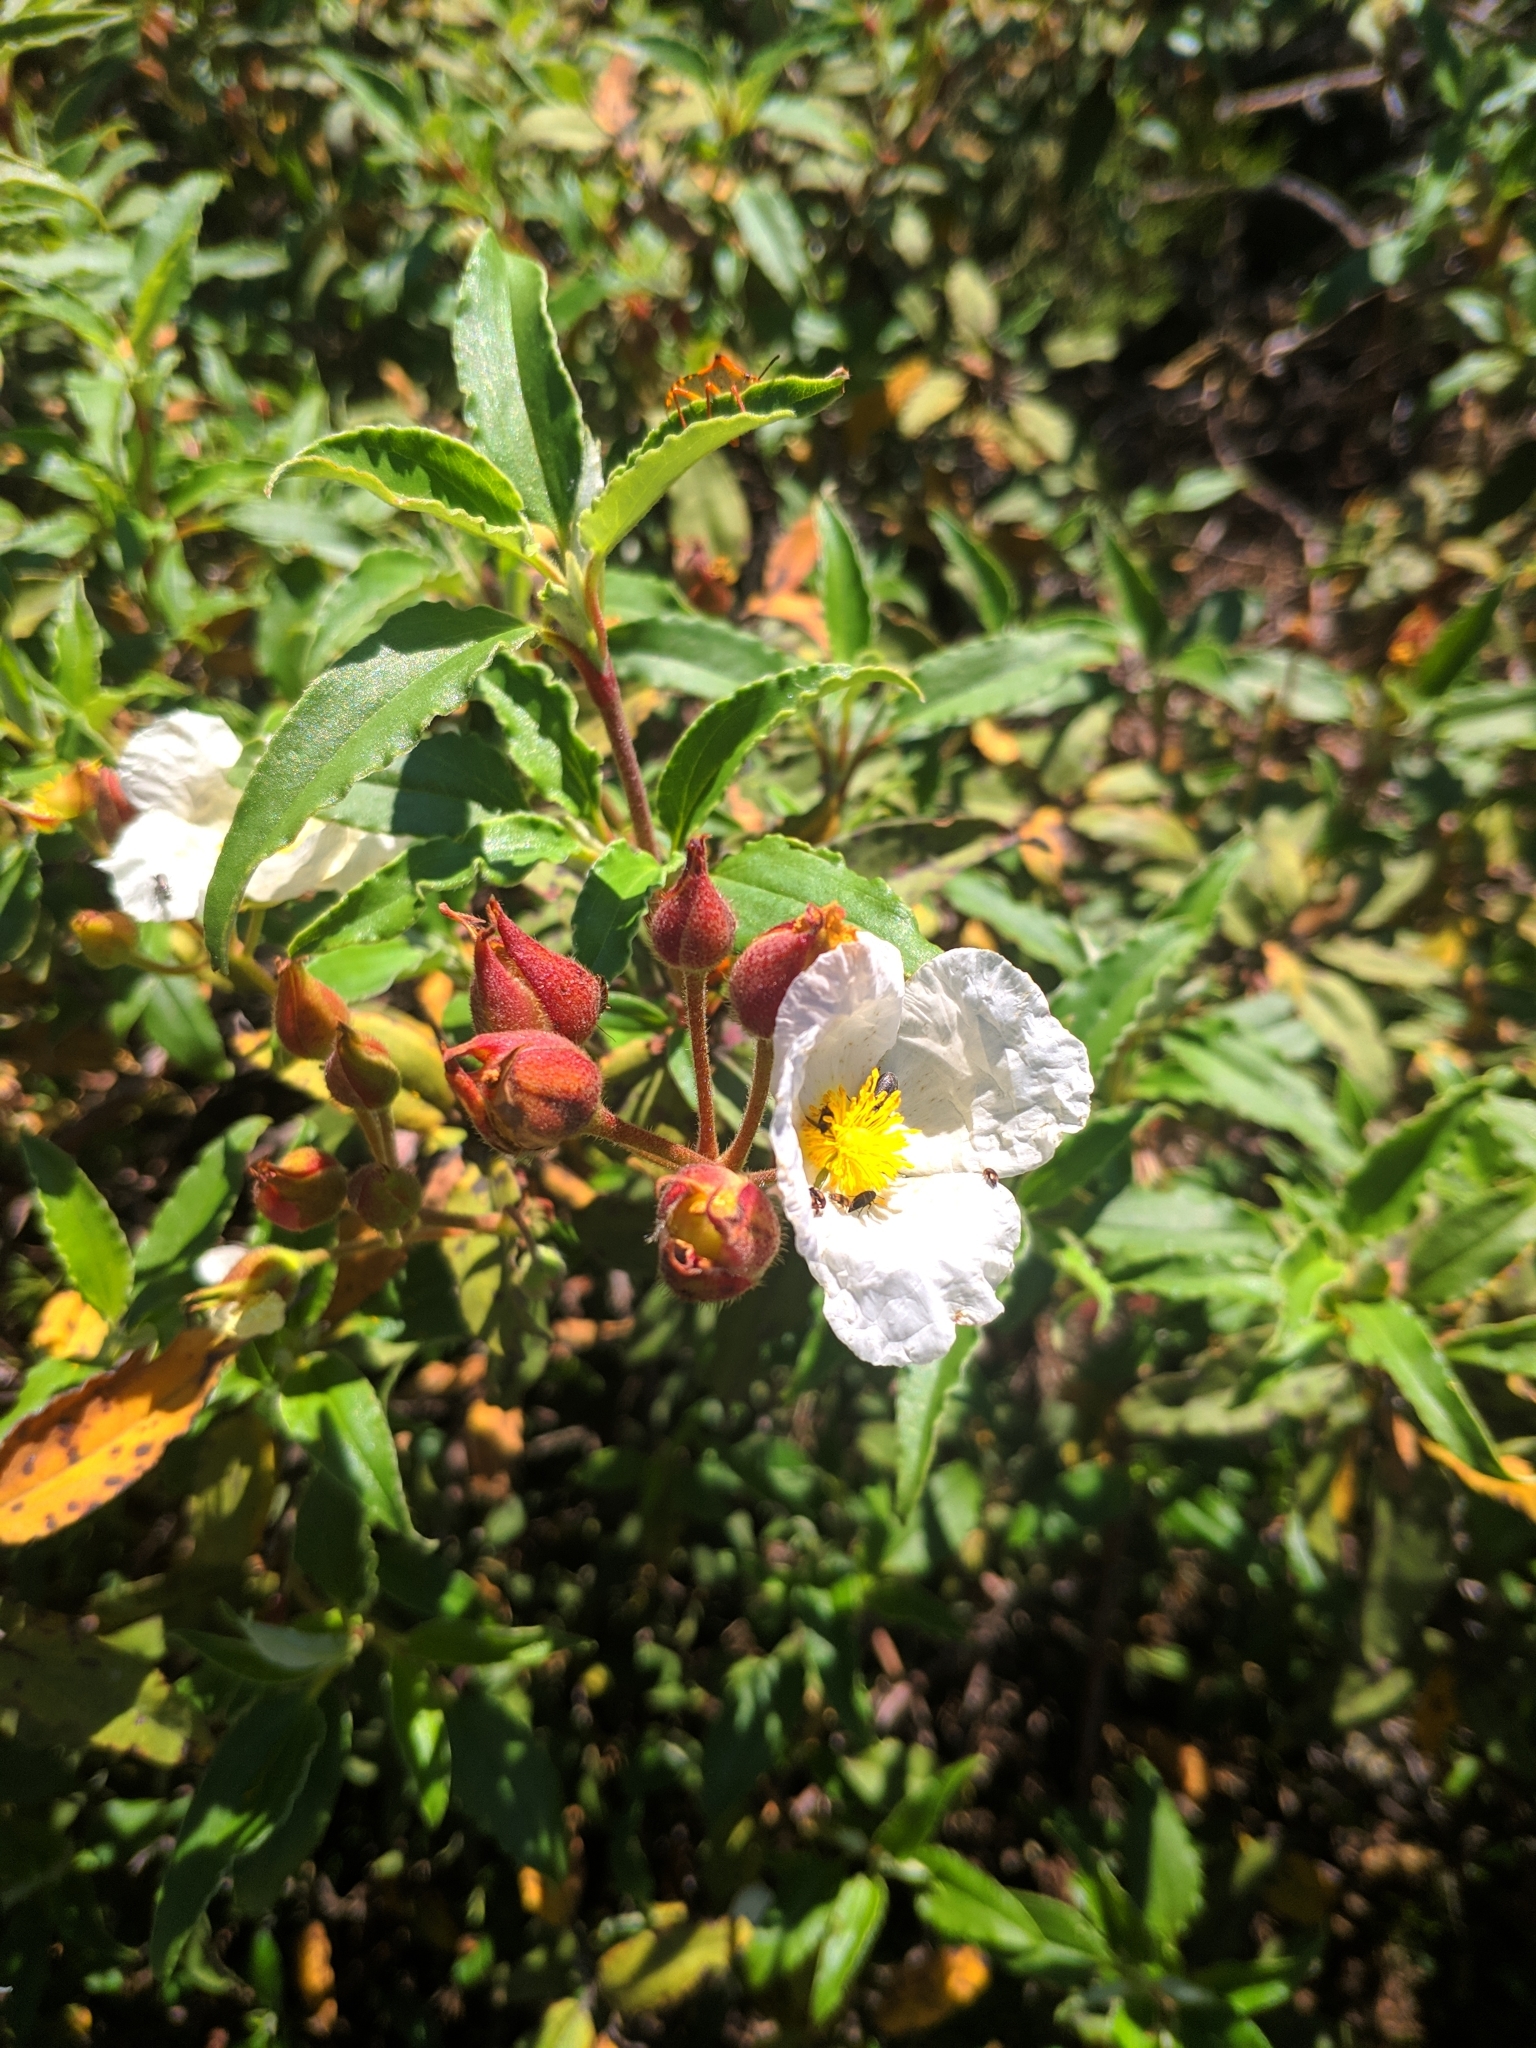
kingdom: Plantae
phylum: Tracheophyta
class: Magnoliopsida
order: Malvales
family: Cistaceae
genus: Cistus
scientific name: Cistus laurifolius
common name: Laurel-leaved cistus
